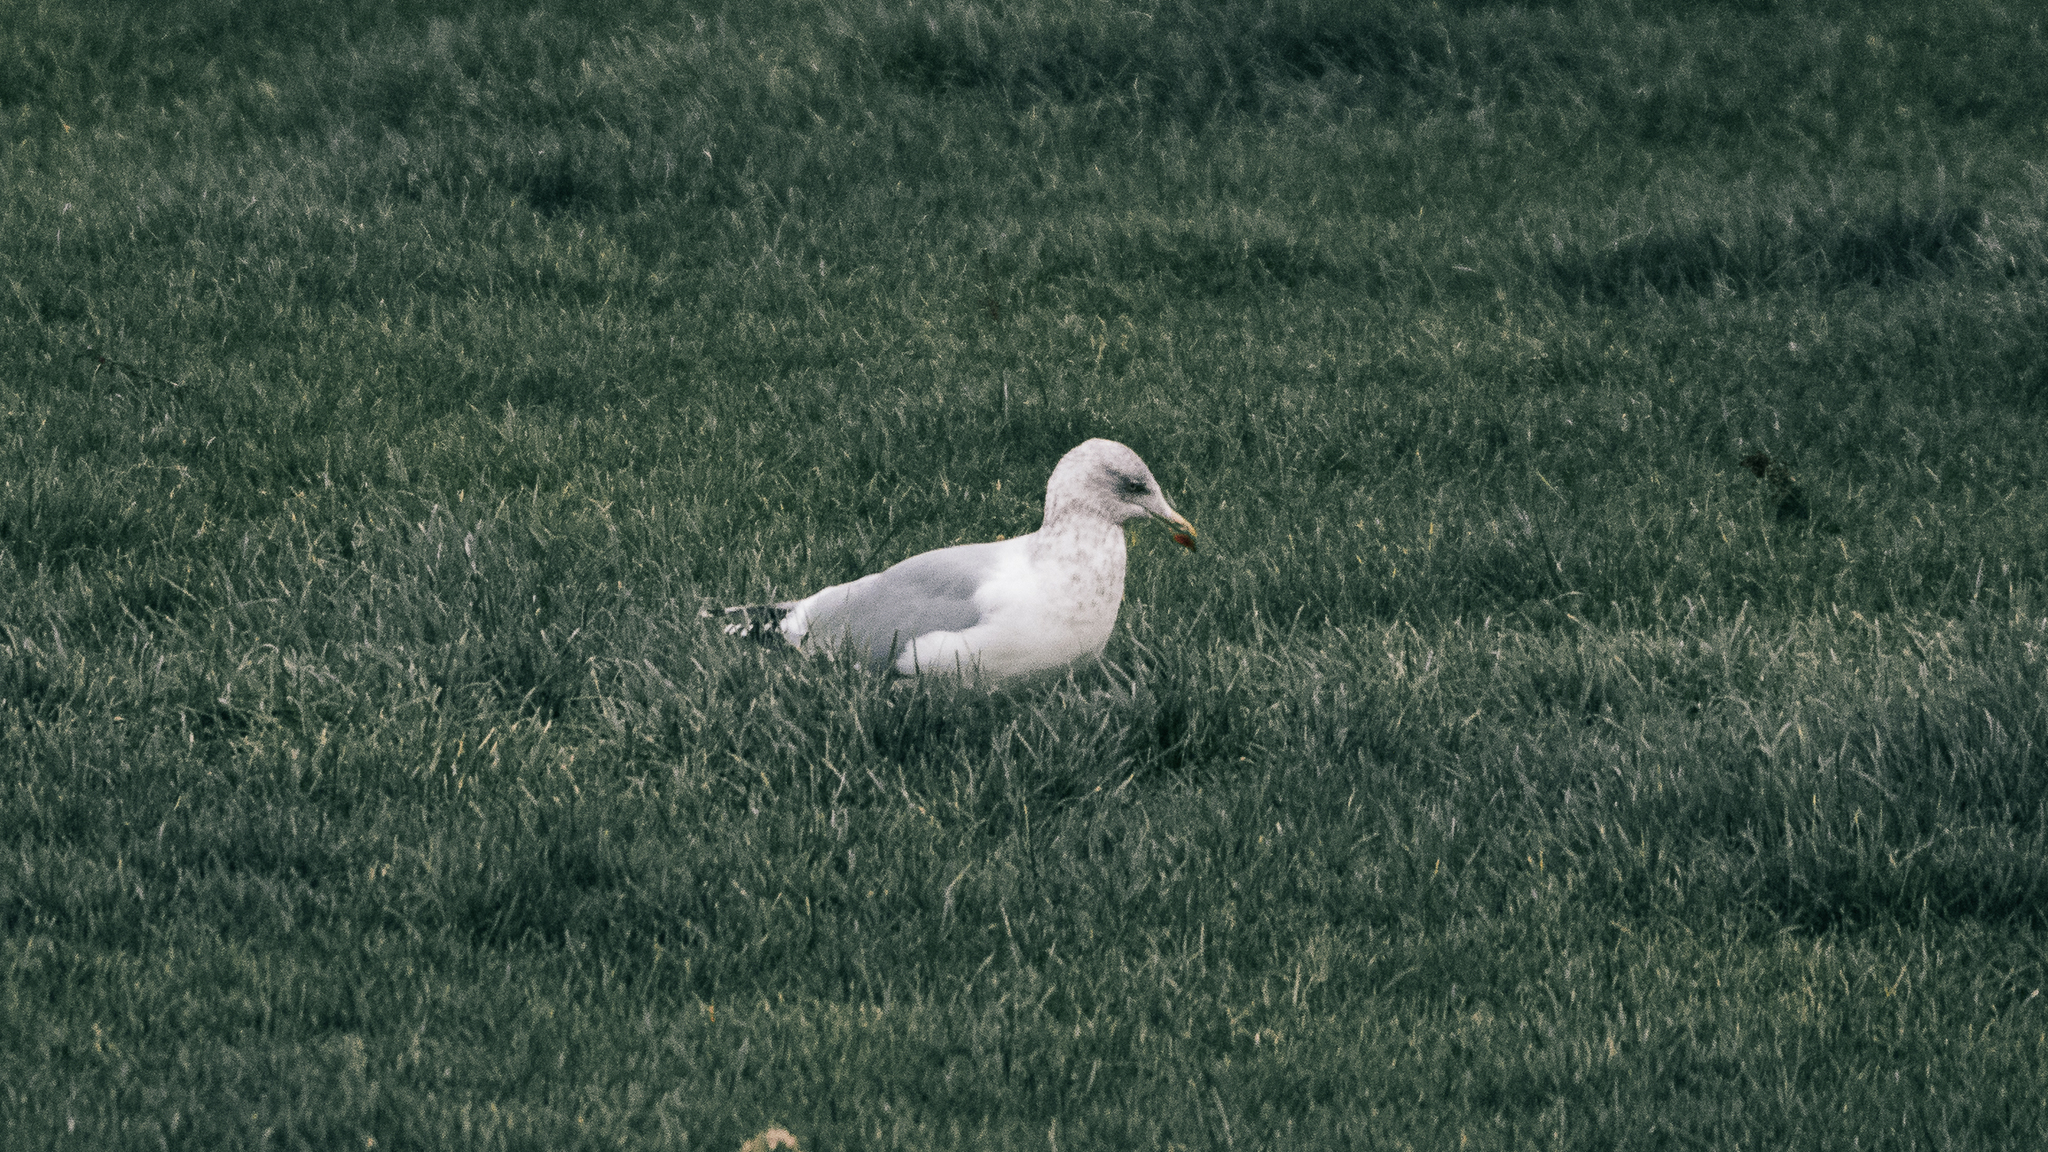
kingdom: Animalia
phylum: Chordata
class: Aves
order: Charadriiformes
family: Laridae
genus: Larus
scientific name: Larus argentatus
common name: Herring gull
